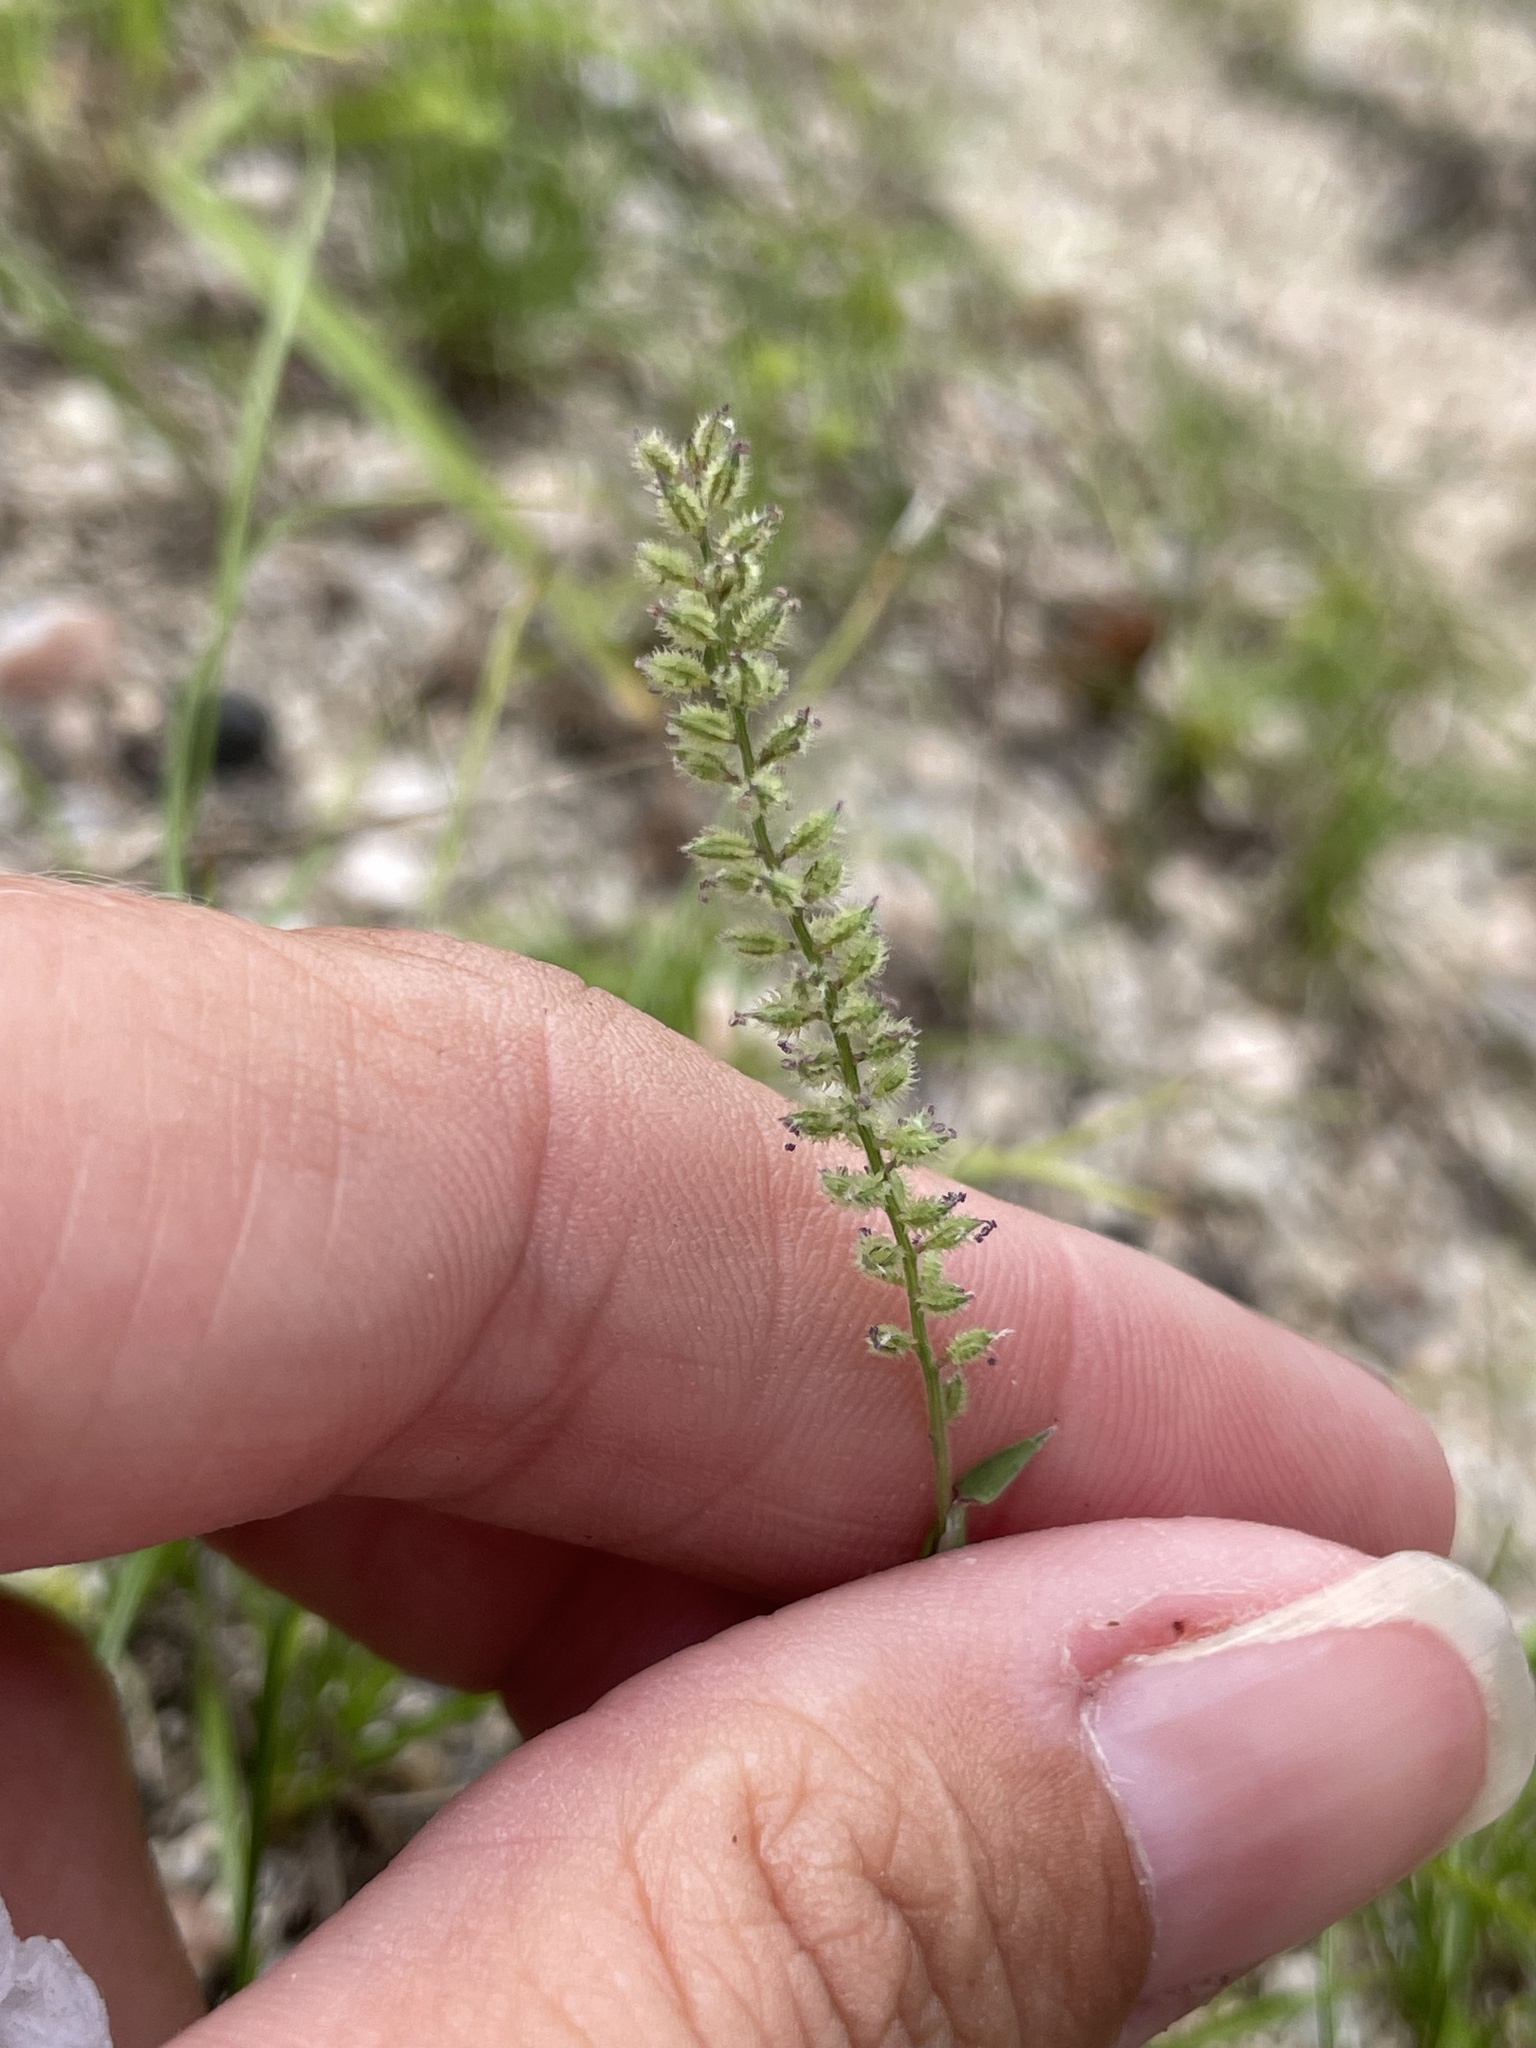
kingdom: Plantae
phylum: Tracheophyta
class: Liliopsida
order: Poales
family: Poaceae
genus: Tragus
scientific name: Tragus berteronianus
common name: African bur-grass
